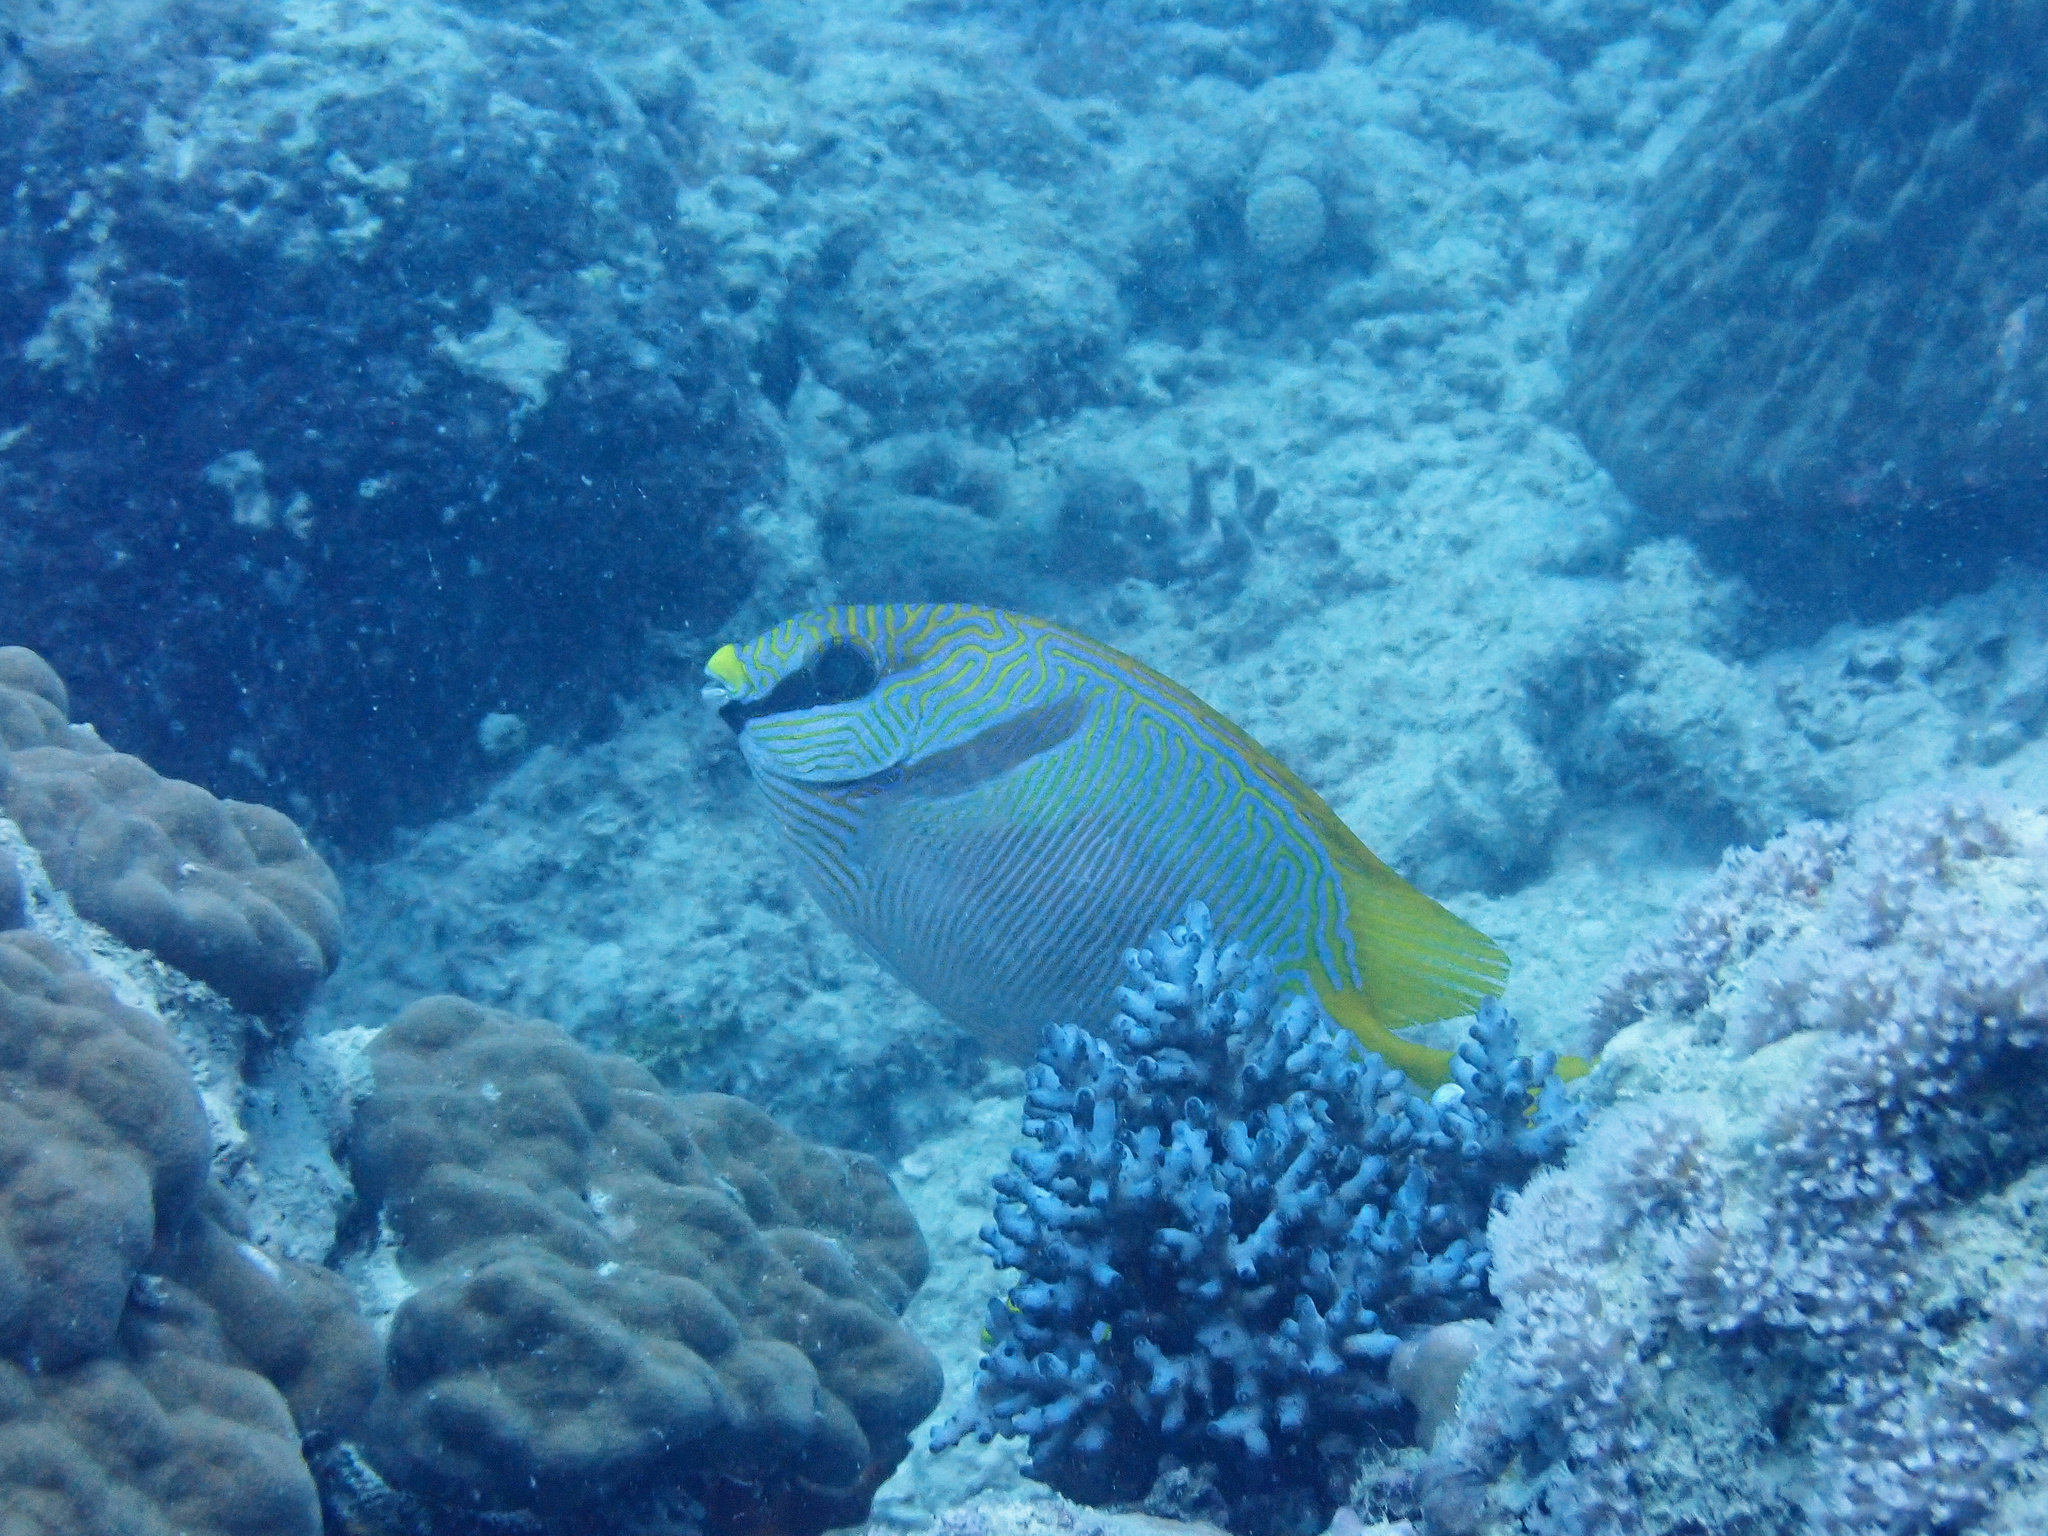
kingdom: Animalia
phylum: Chordata
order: Perciformes
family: Siganidae
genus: Siganus
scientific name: Siganus doliatus
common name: Barred spinefoot
